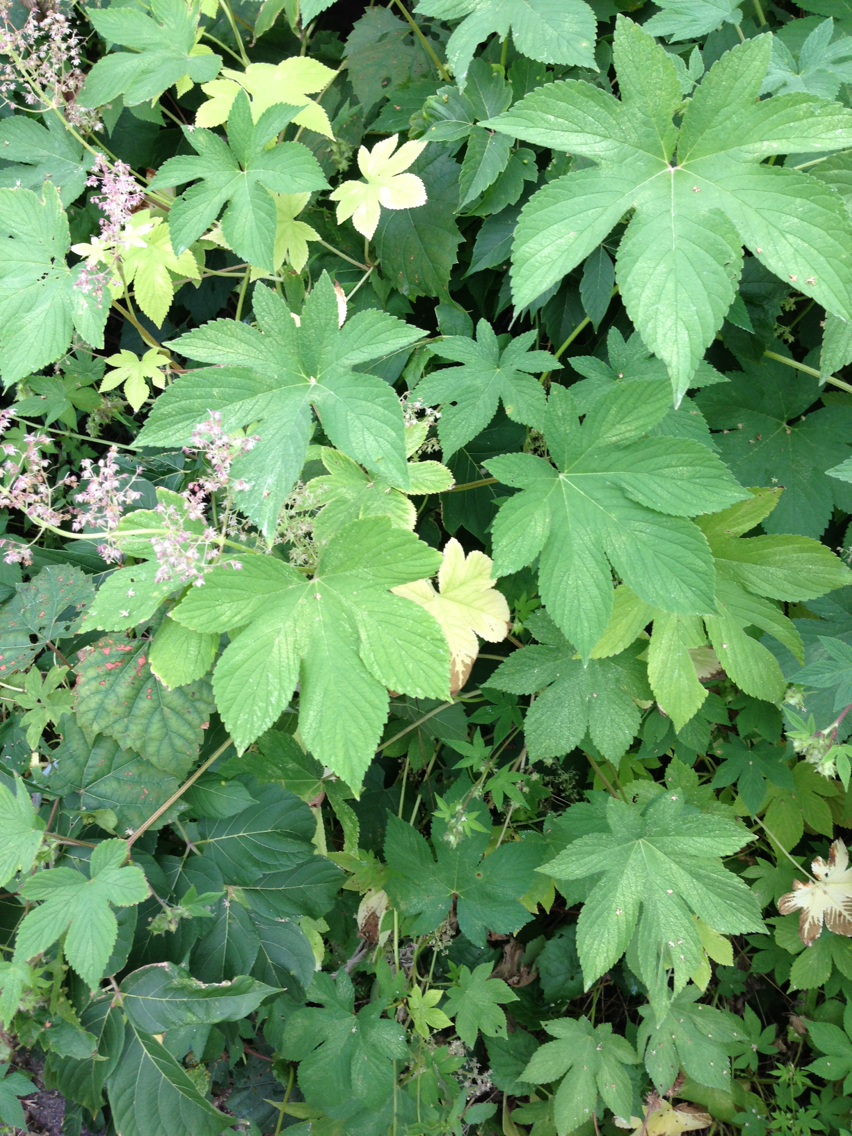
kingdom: Plantae
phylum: Tracheophyta
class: Magnoliopsida
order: Rosales
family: Cannabaceae
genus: Humulus
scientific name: Humulus scandens
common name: Japanese hop
